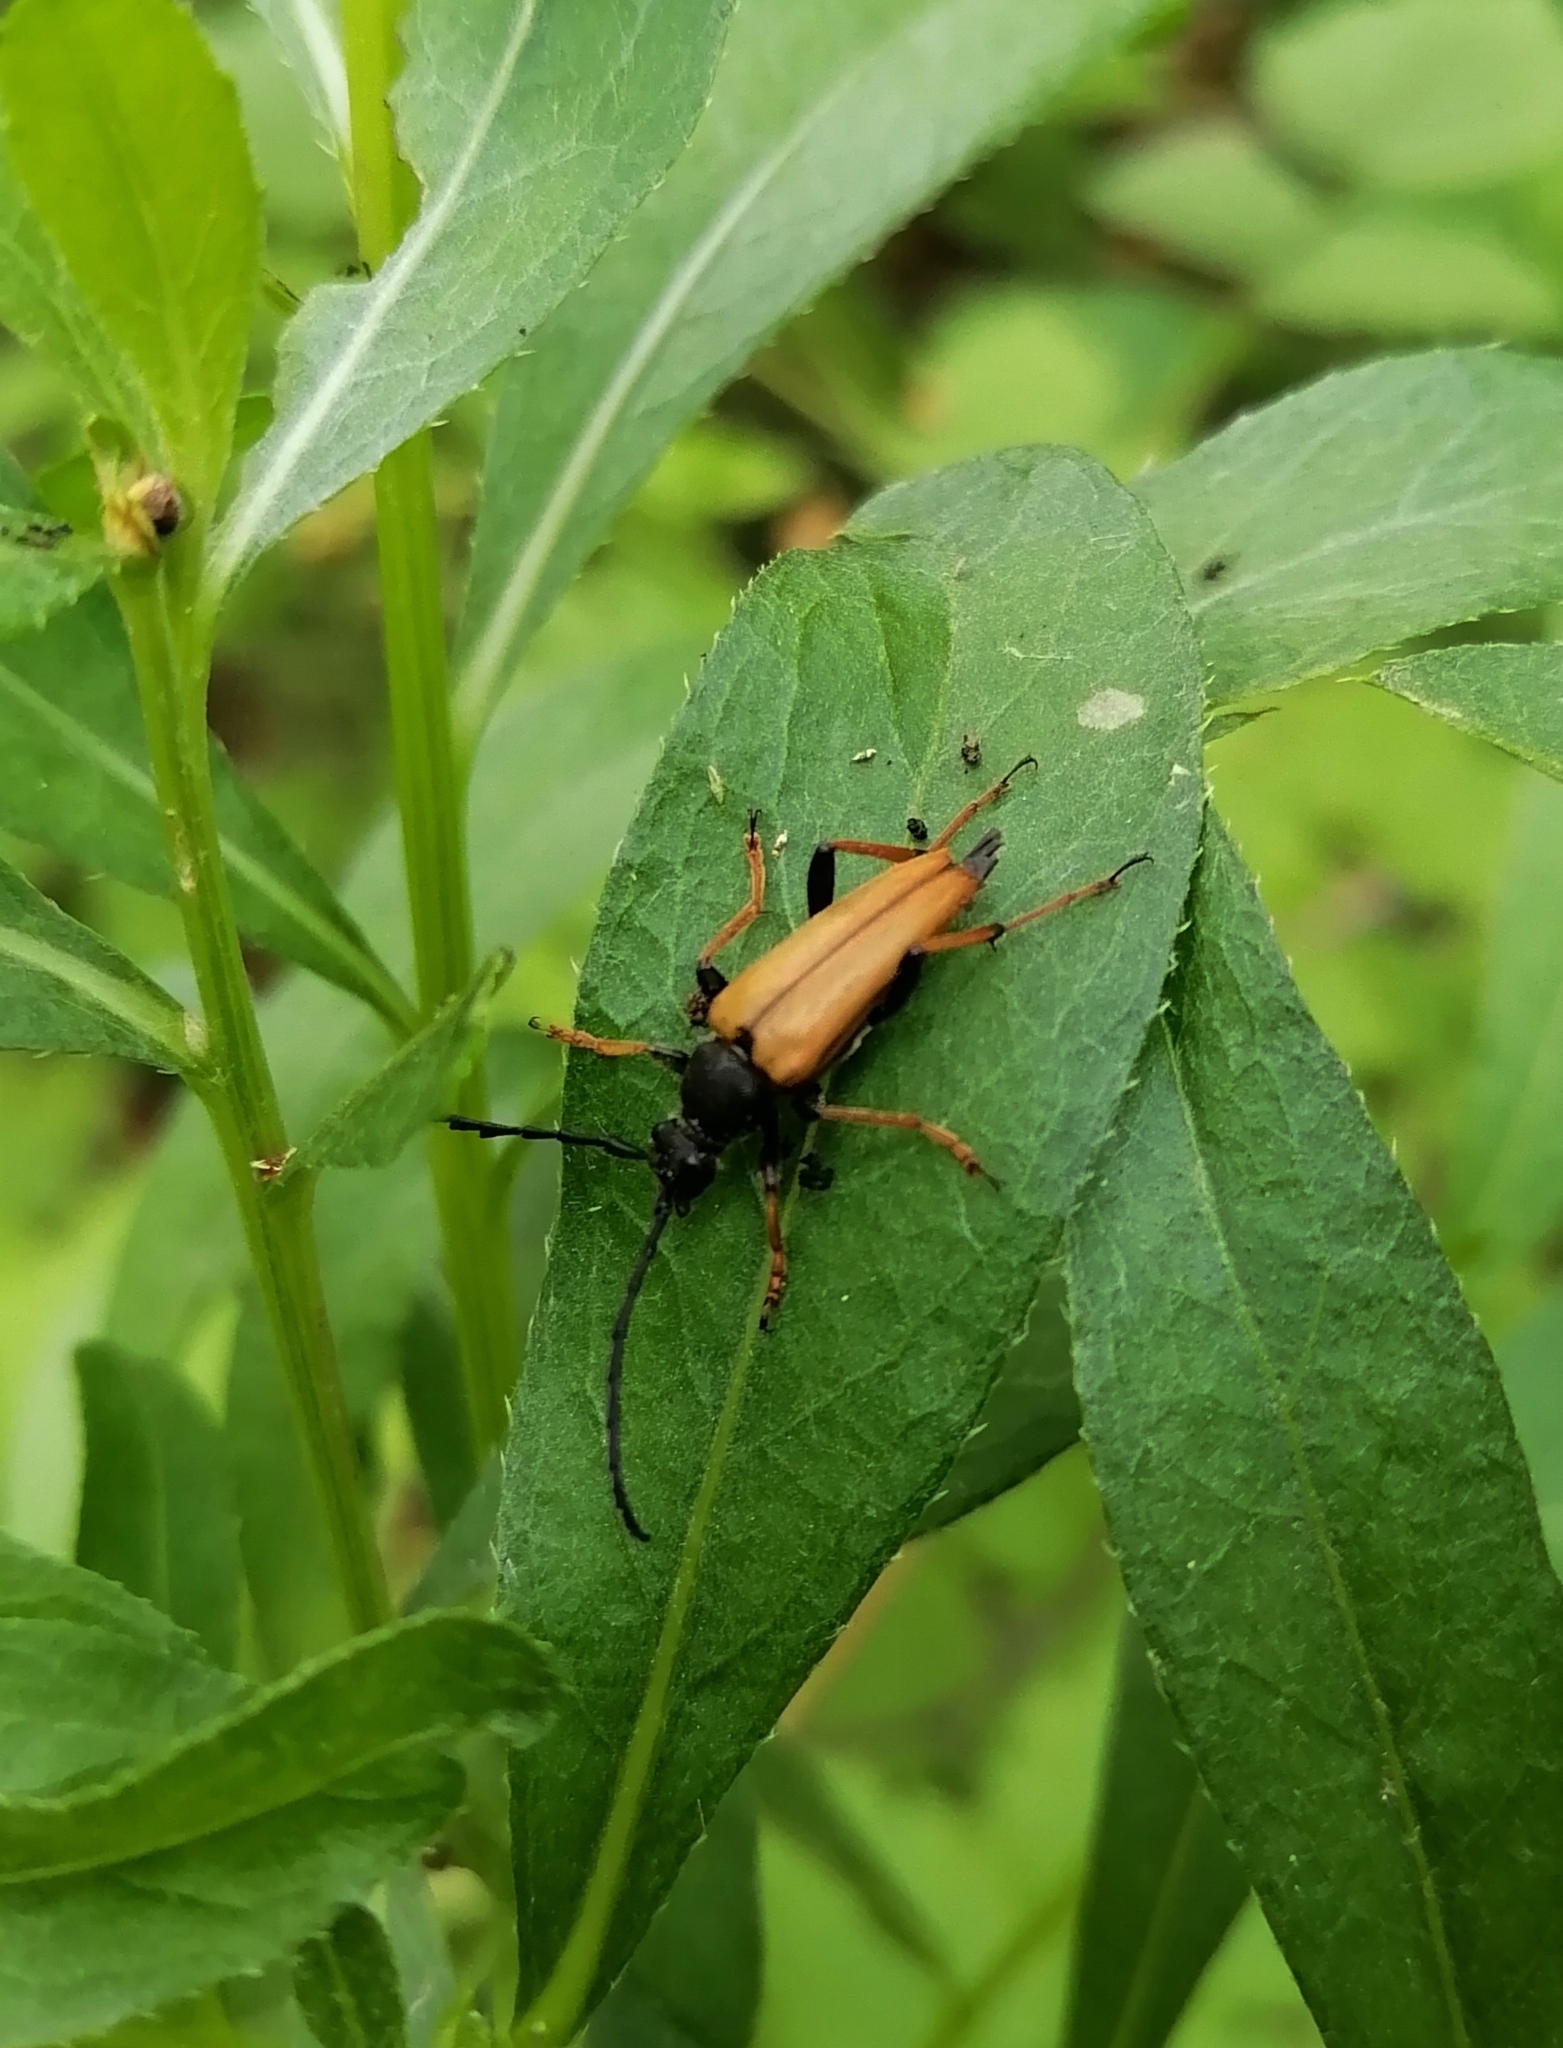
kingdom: Animalia
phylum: Arthropoda
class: Insecta
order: Coleoptera
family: Cerambycidae
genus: Stictoleptura
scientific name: Stictoleptura rubra
